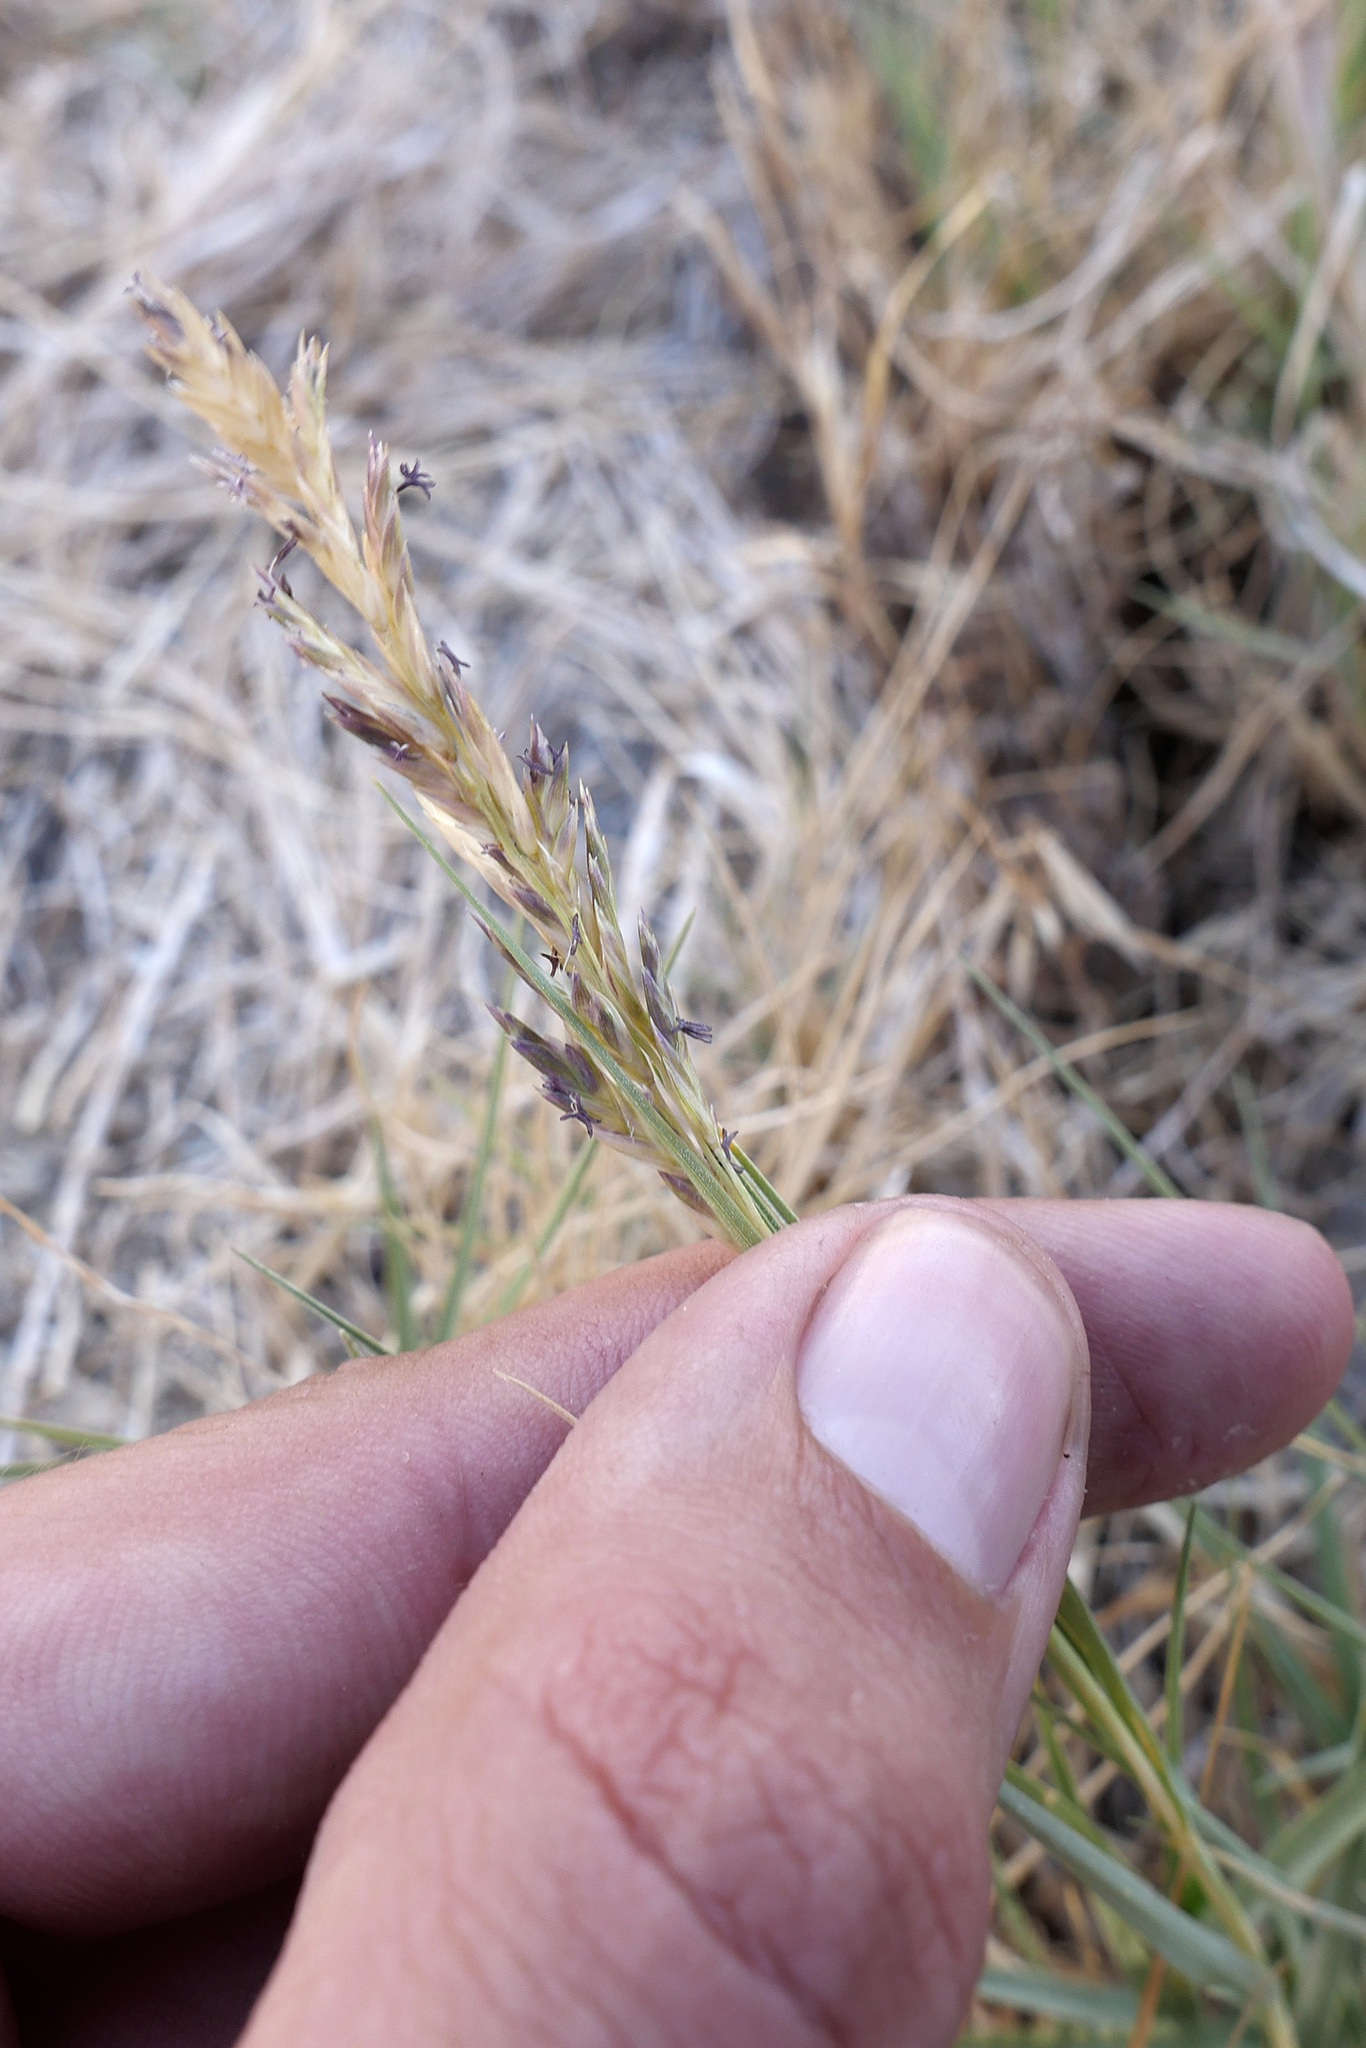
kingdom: Plantae
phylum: Tracheophyta
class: Liliopsida
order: Poales
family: Poaceae
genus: Distichlis
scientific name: Distichlis spicata
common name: Saltgrass
